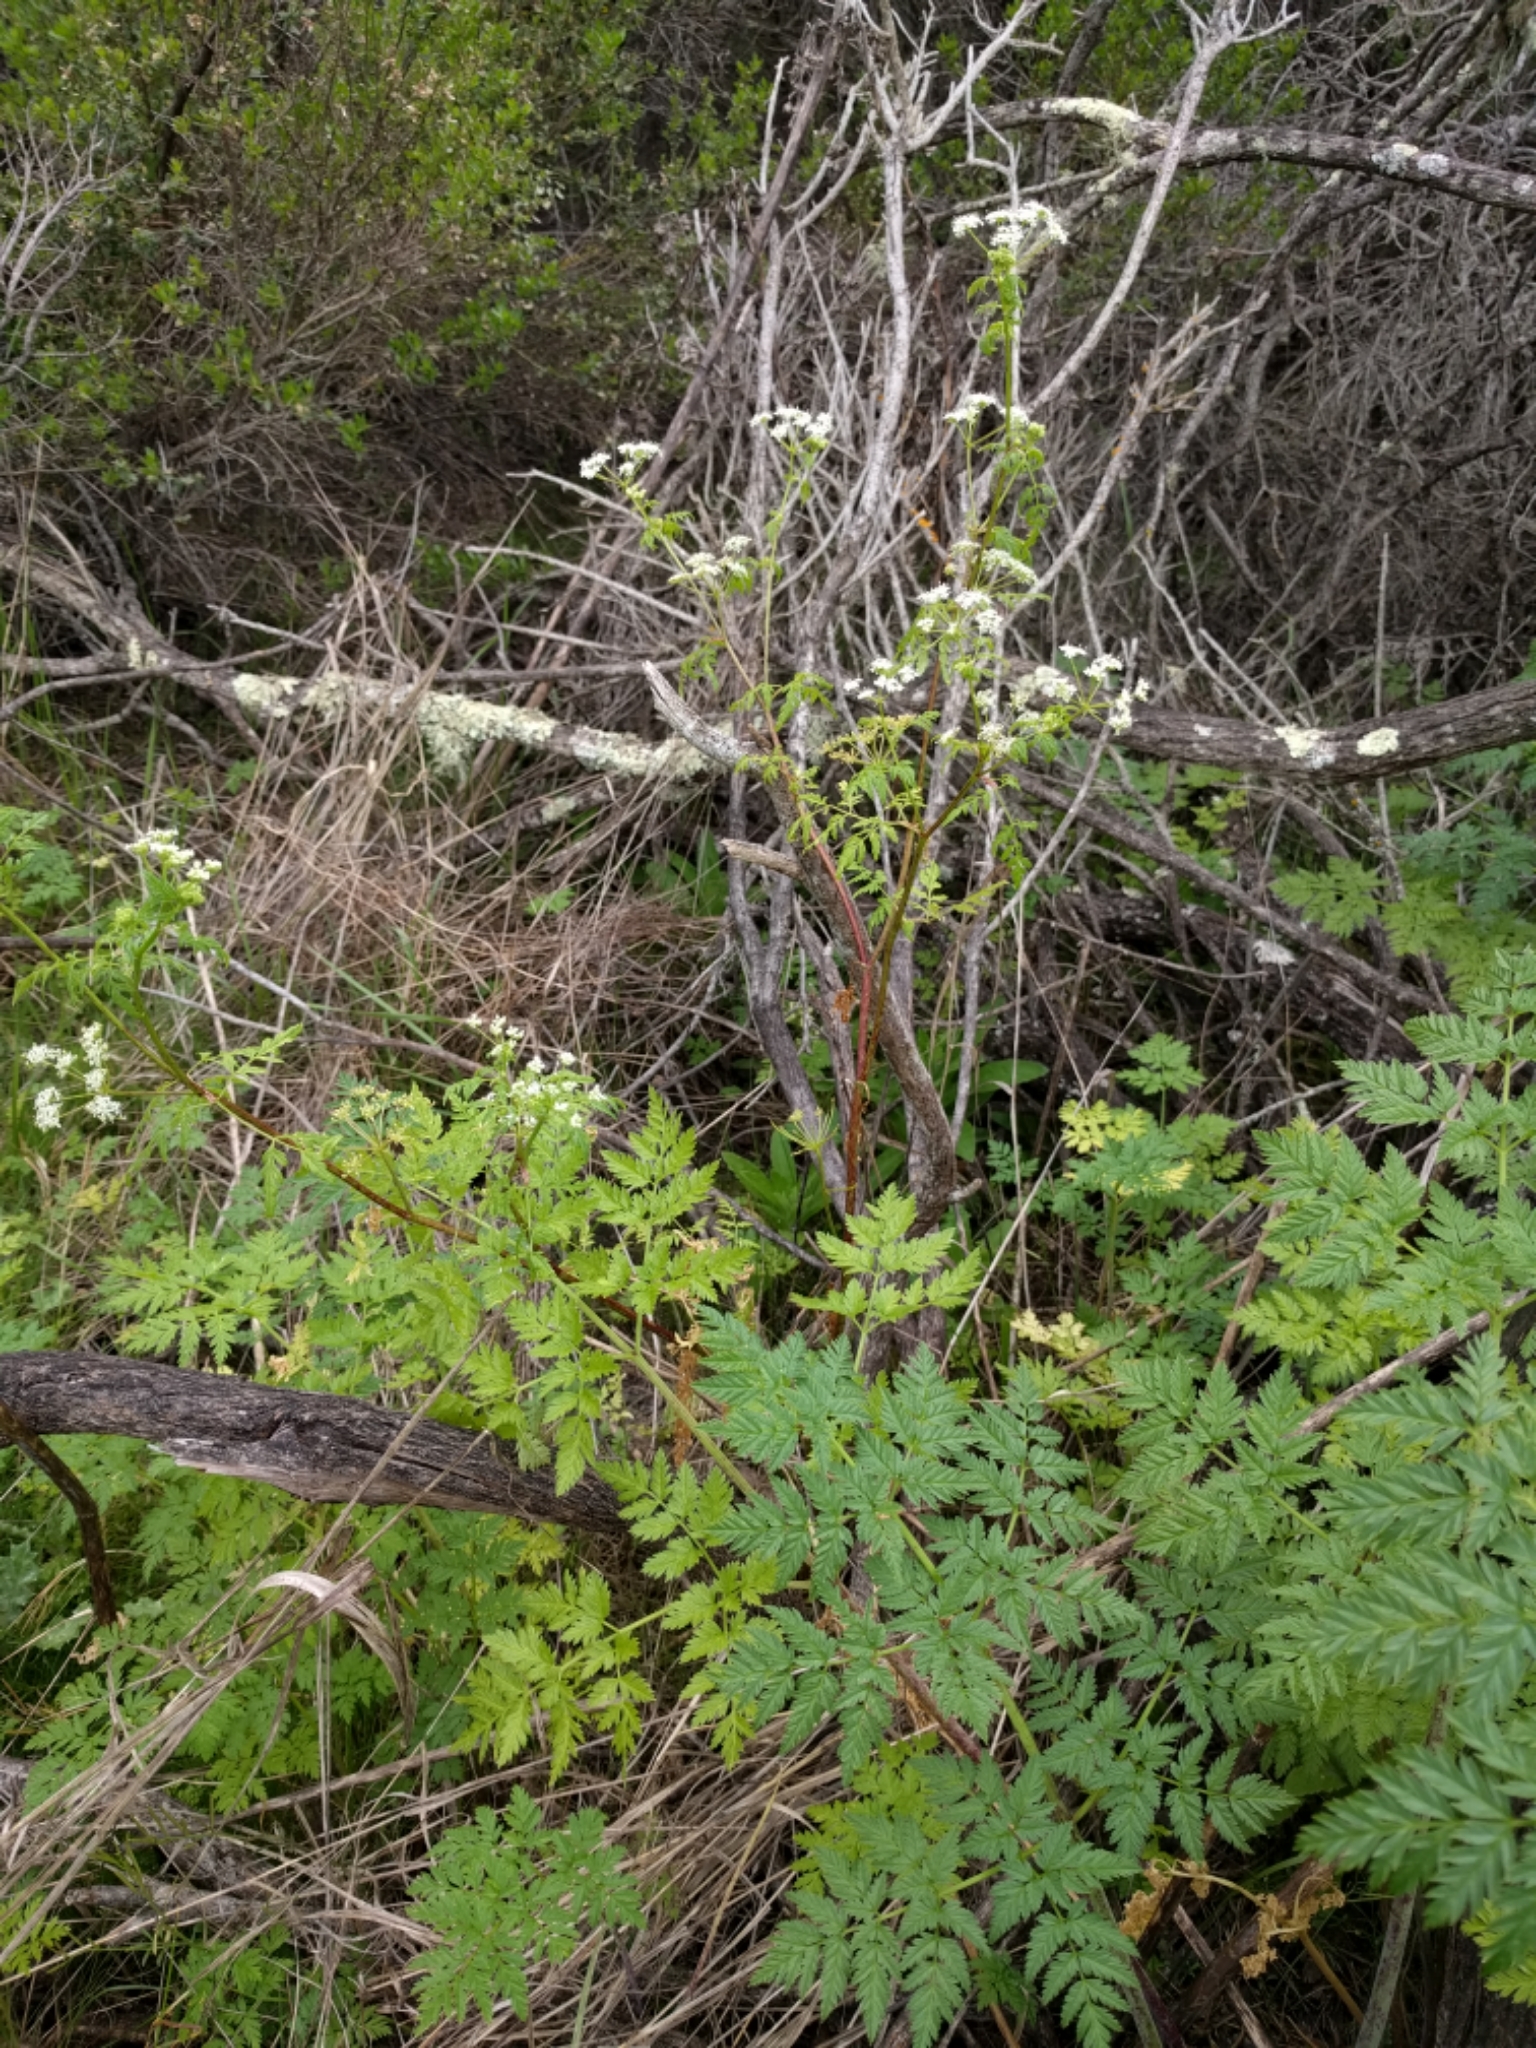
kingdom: Plantae
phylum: Tracheophyta
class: Magnoliopsida
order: Apiales
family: Apiaceae
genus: Conium
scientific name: Conium maculatum
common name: Hemlock
